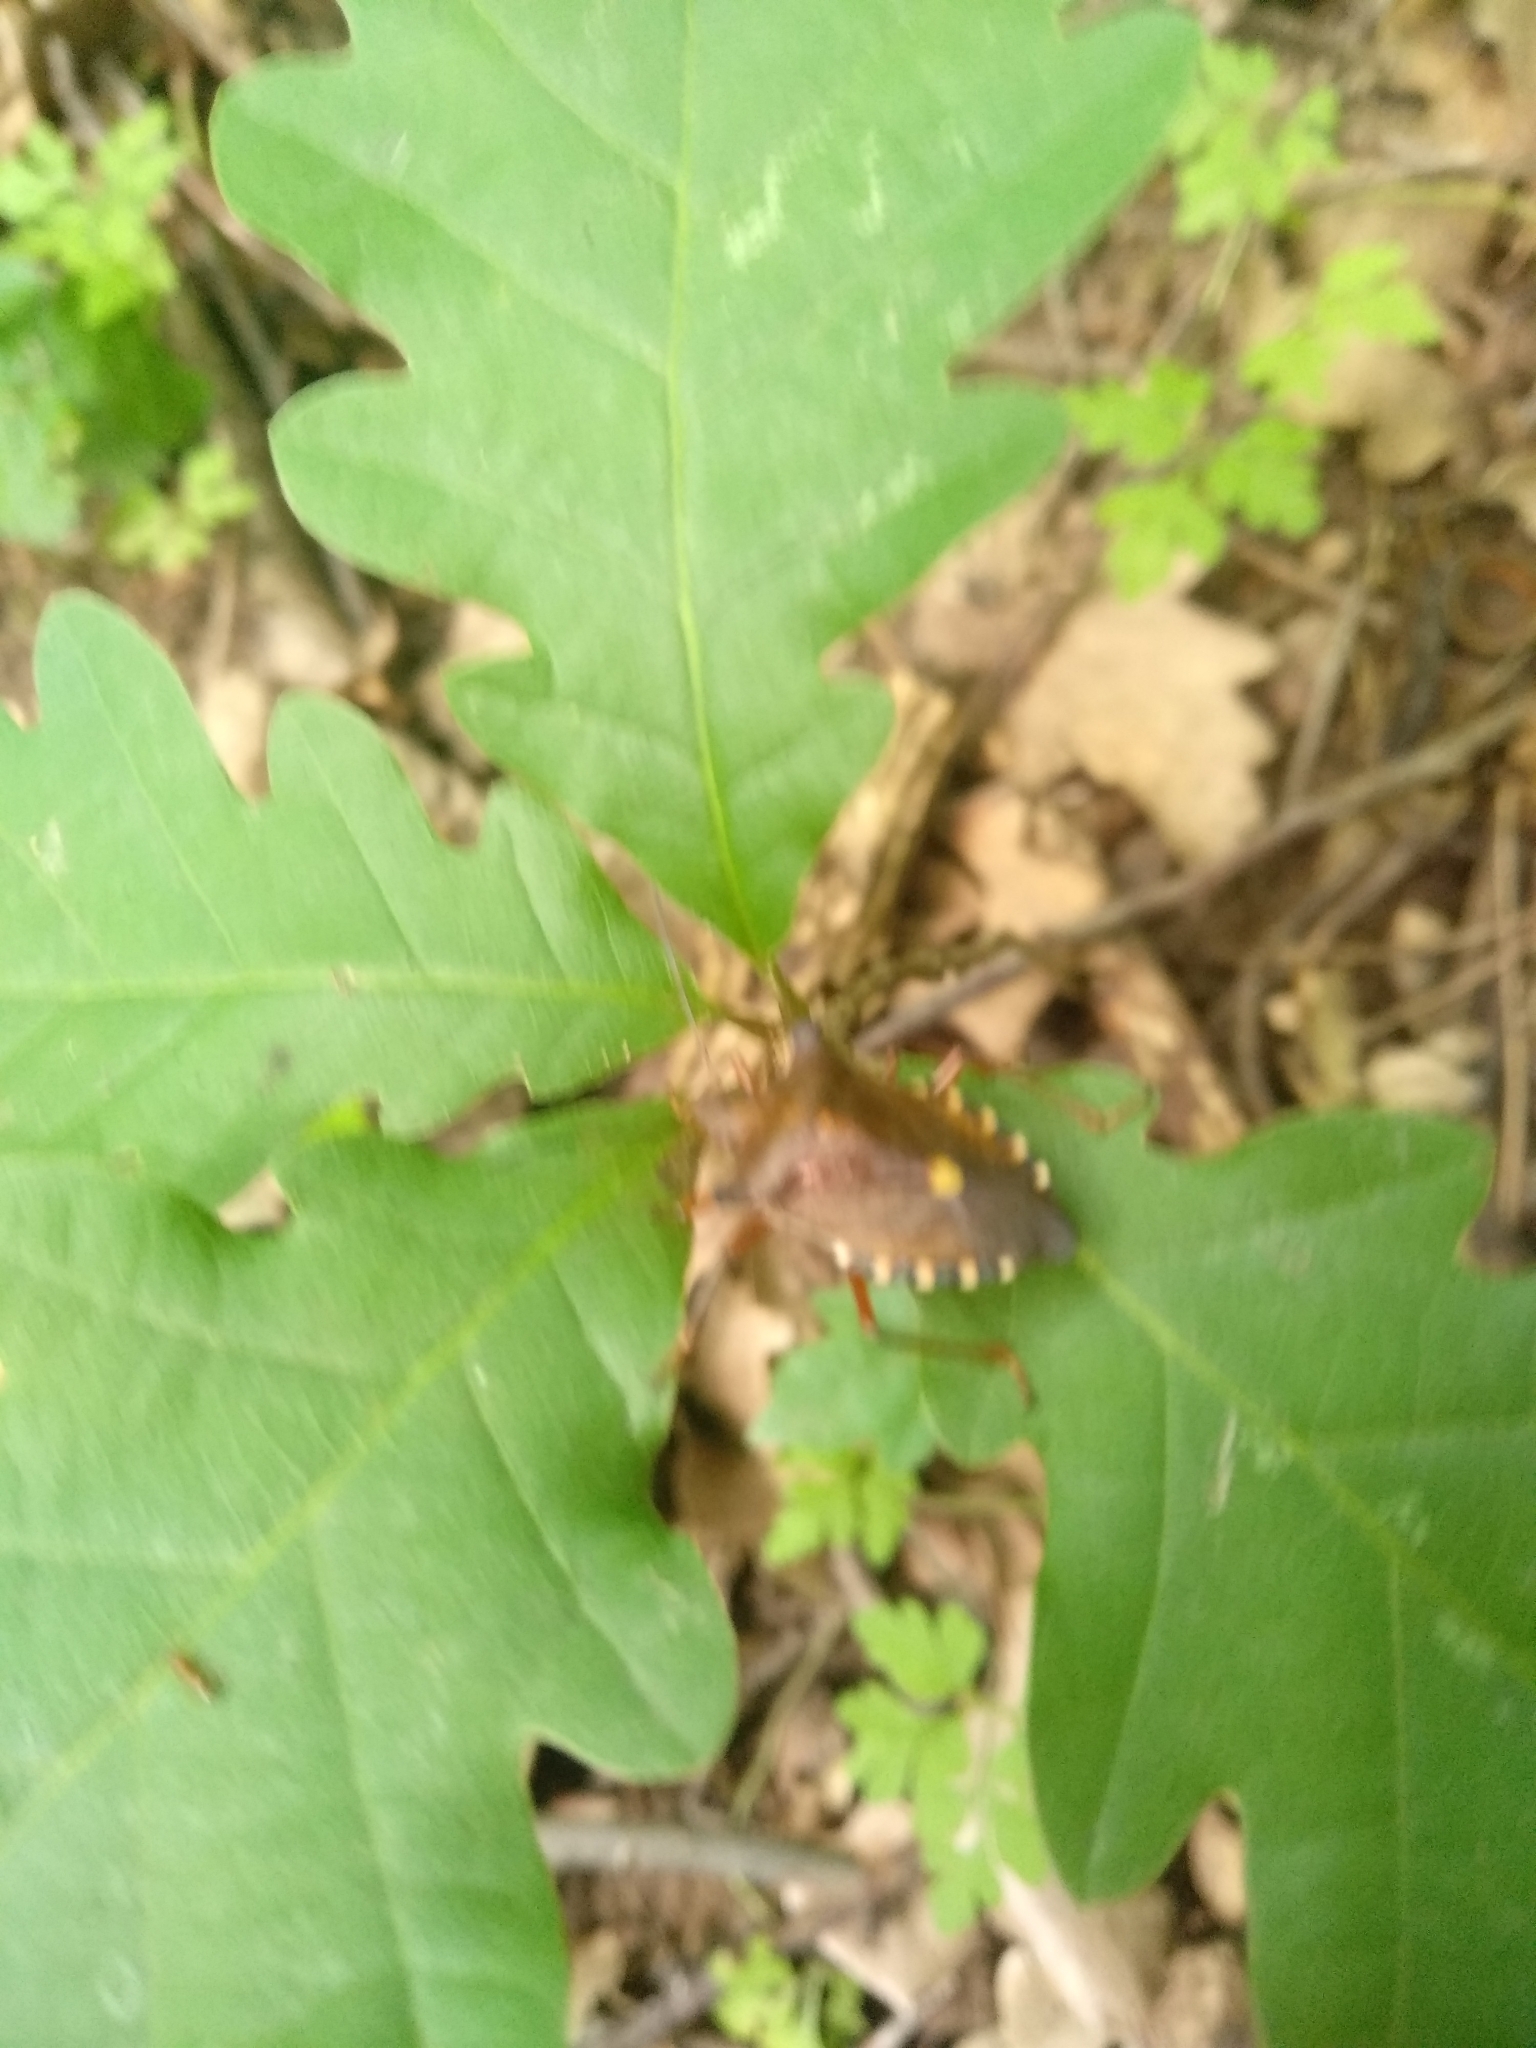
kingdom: Animalia
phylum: Arthropoda
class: Insecta
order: Hemiptera
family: Pentatomidae
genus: Pentatoma
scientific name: Pentatoma rufipes
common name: Forest bug
